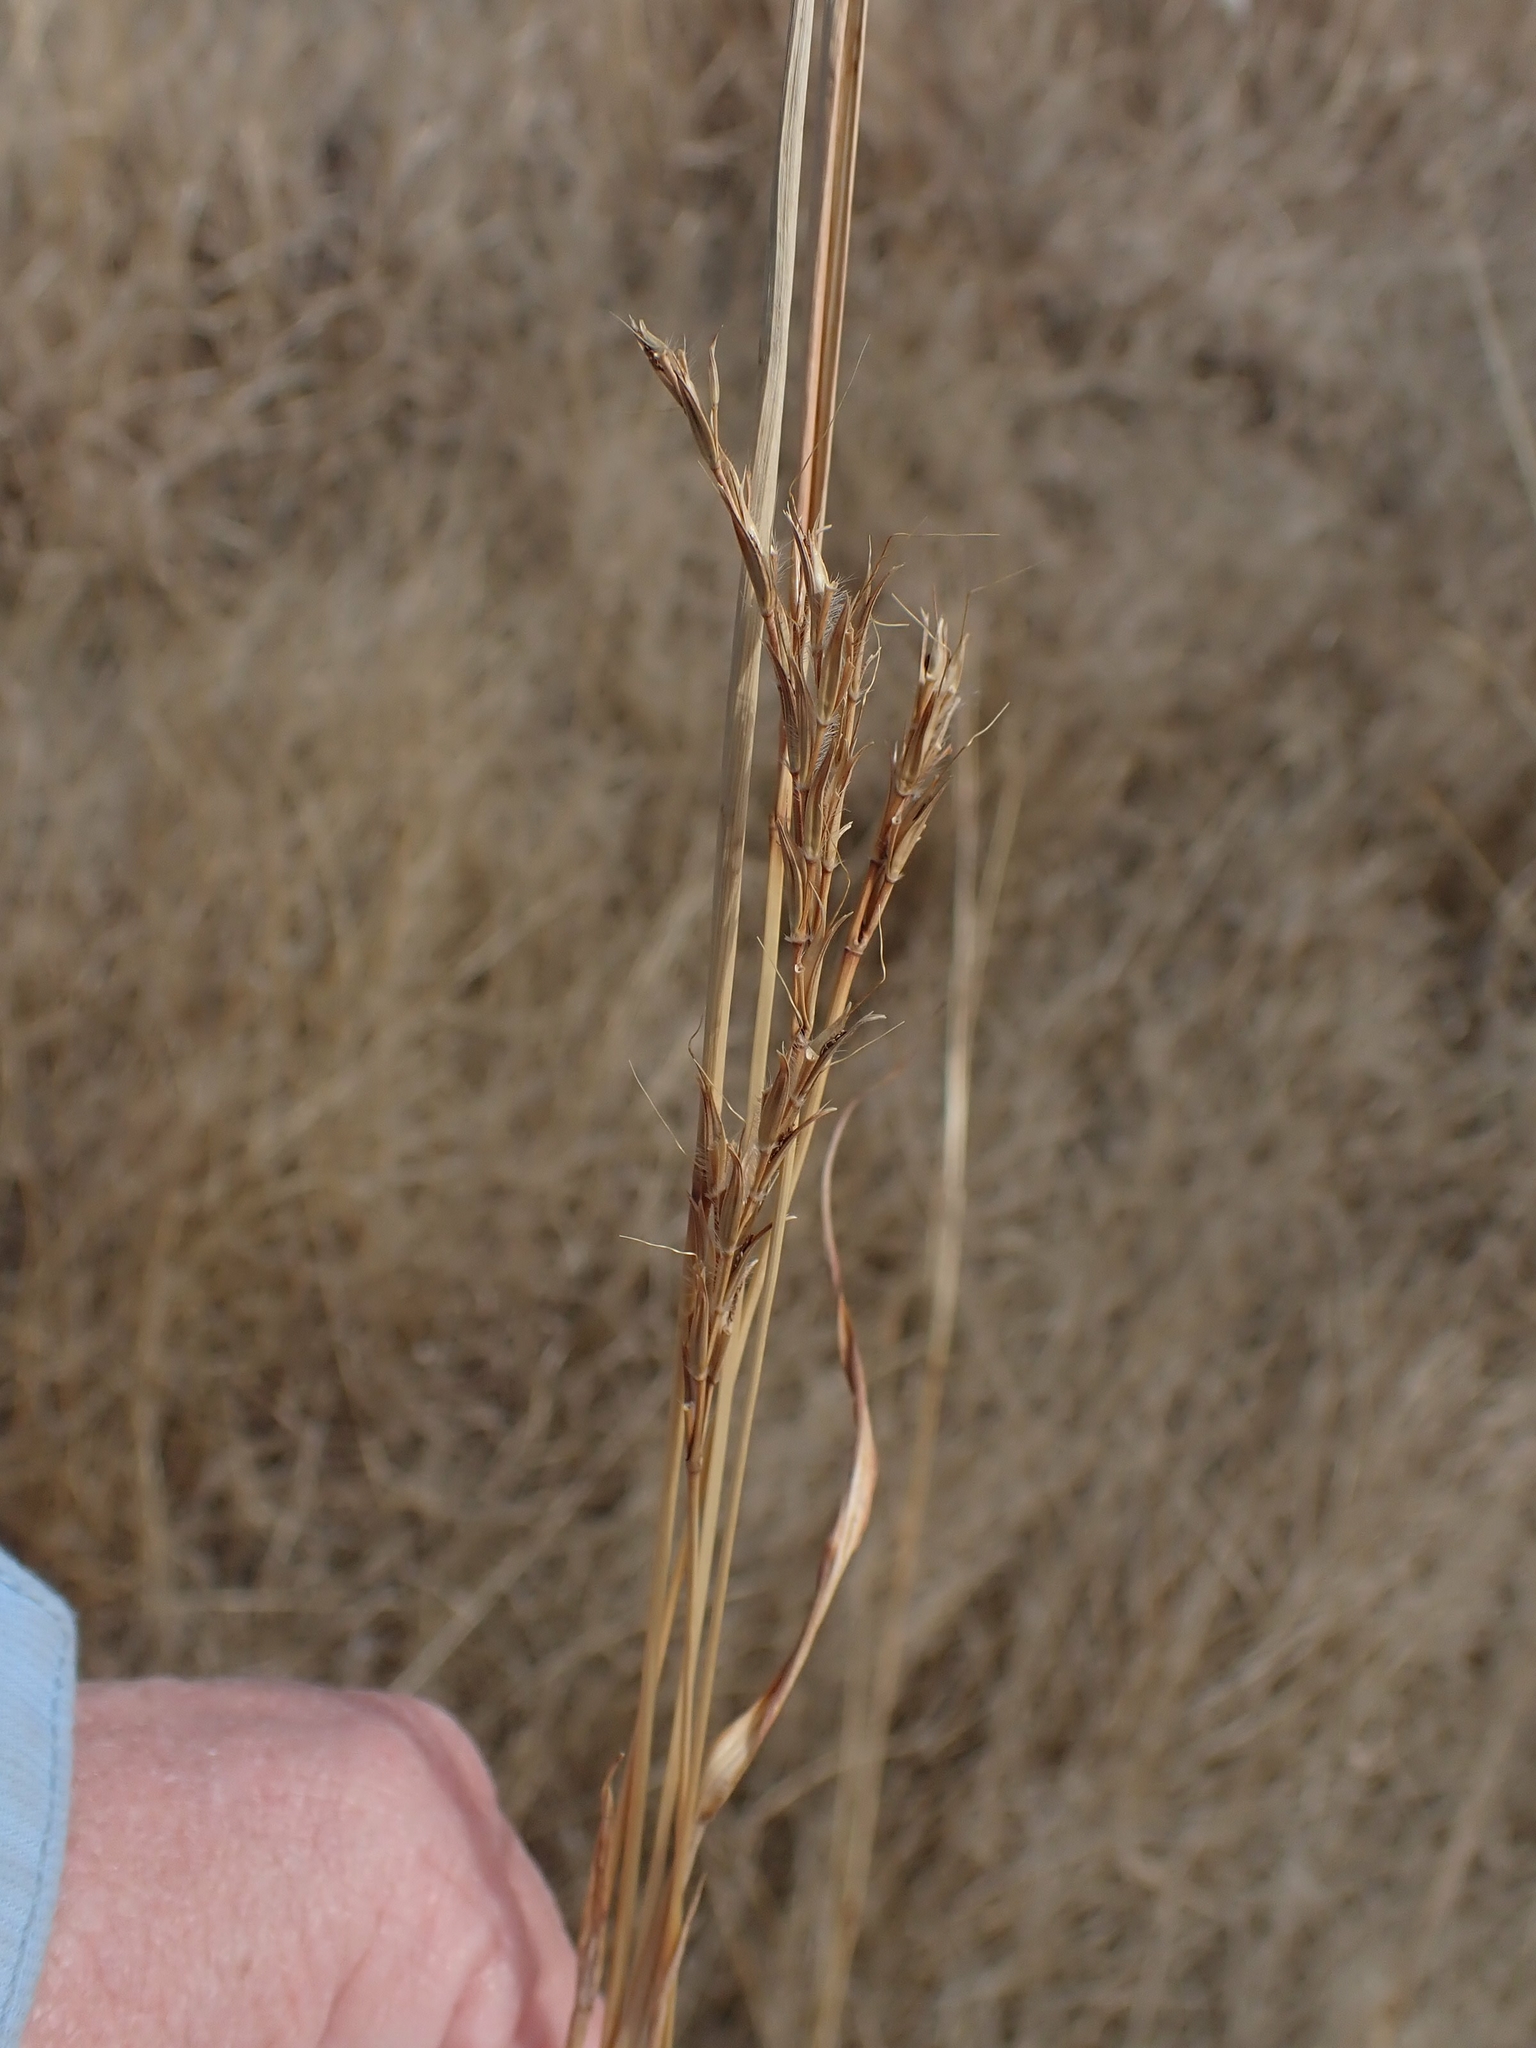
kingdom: Plantae
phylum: Tracheophyta
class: Liliopsida
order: Poales
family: Poaceae
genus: Andropogon
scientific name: Andropogon gerardi
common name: Big bluestem
